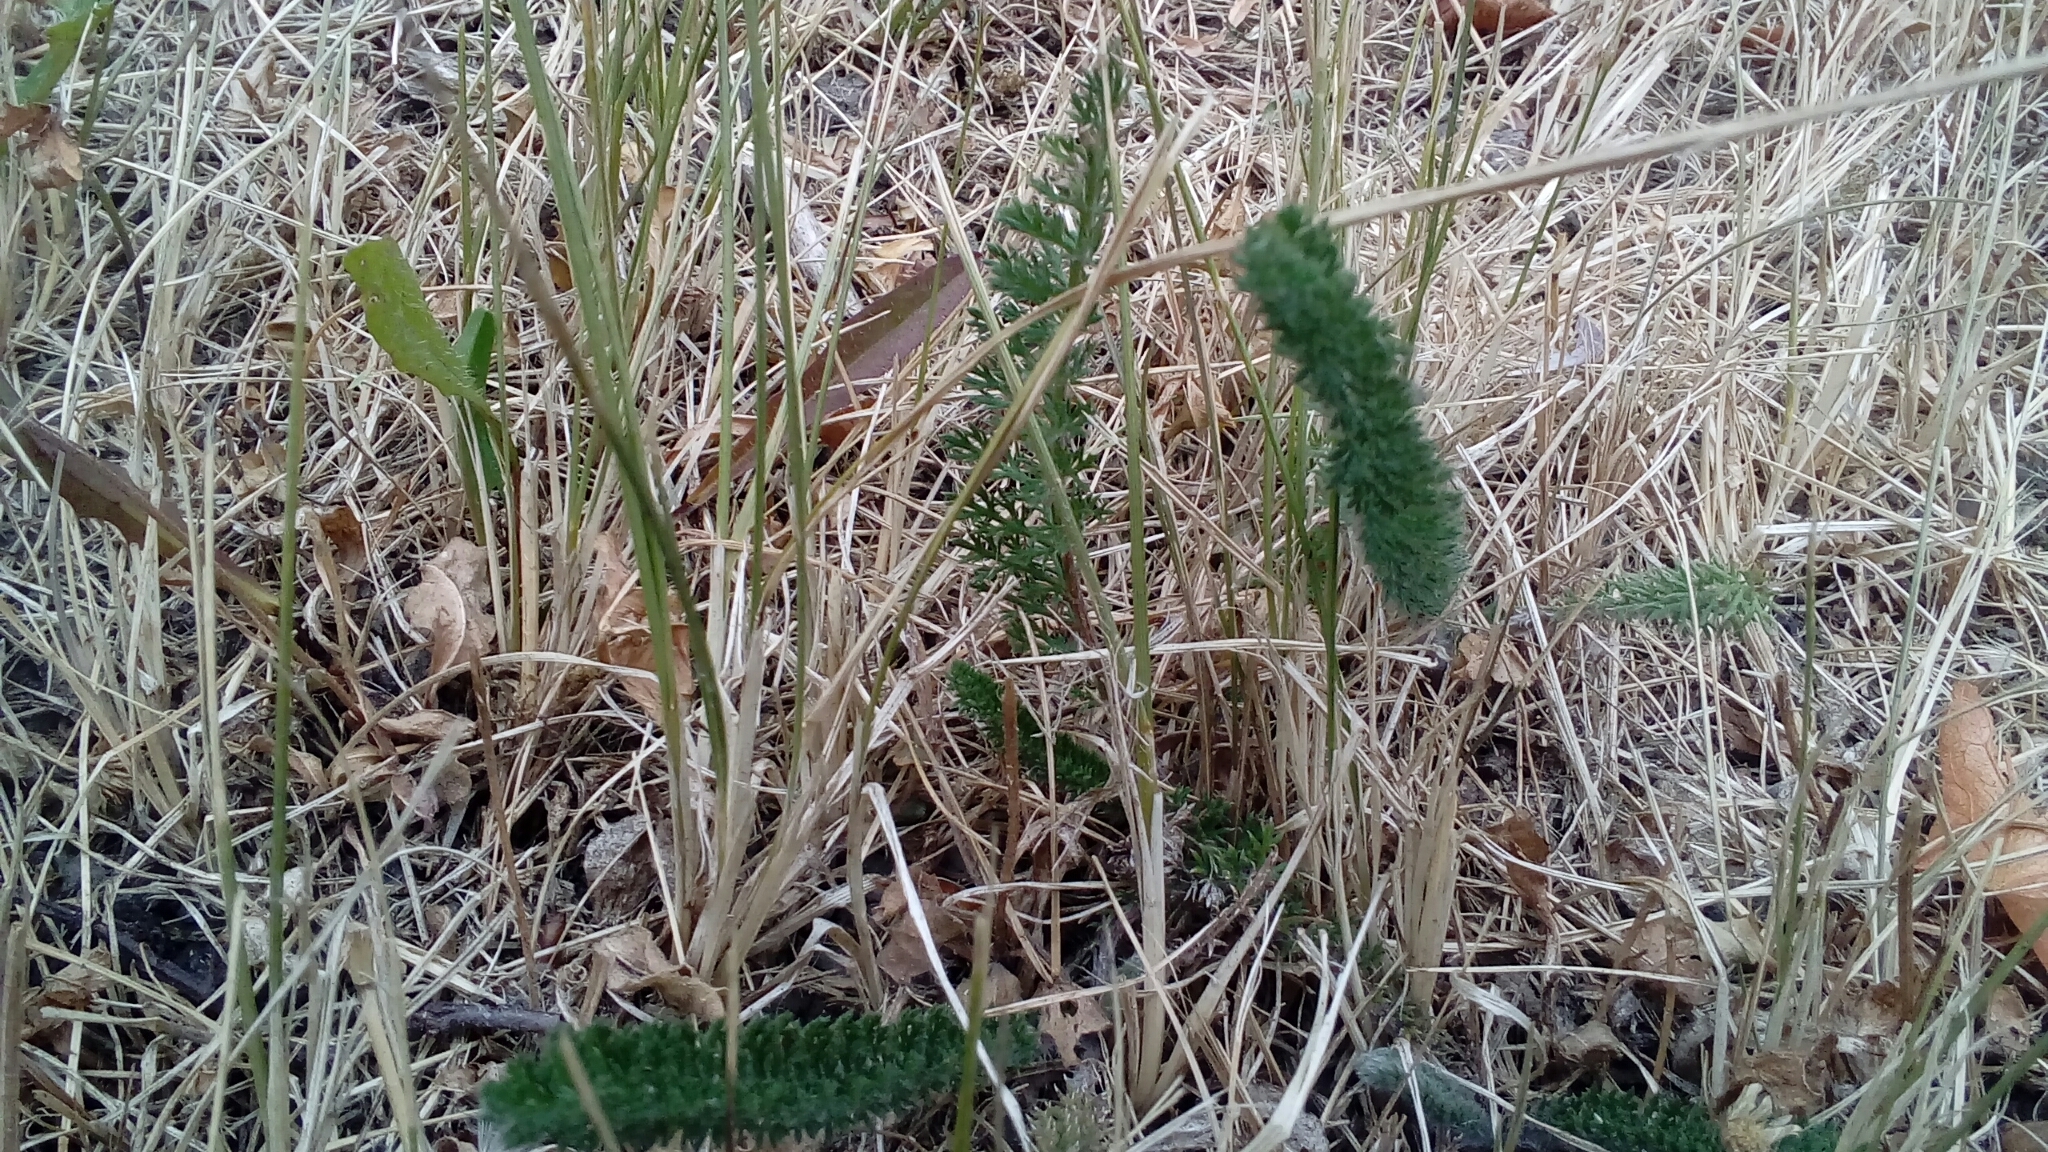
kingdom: Plantae
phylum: Tracheophyta
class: Magnoliopsida
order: Asterales
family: Asteraceae
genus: Achillea
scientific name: Achillea millefolium
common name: Yarrow
